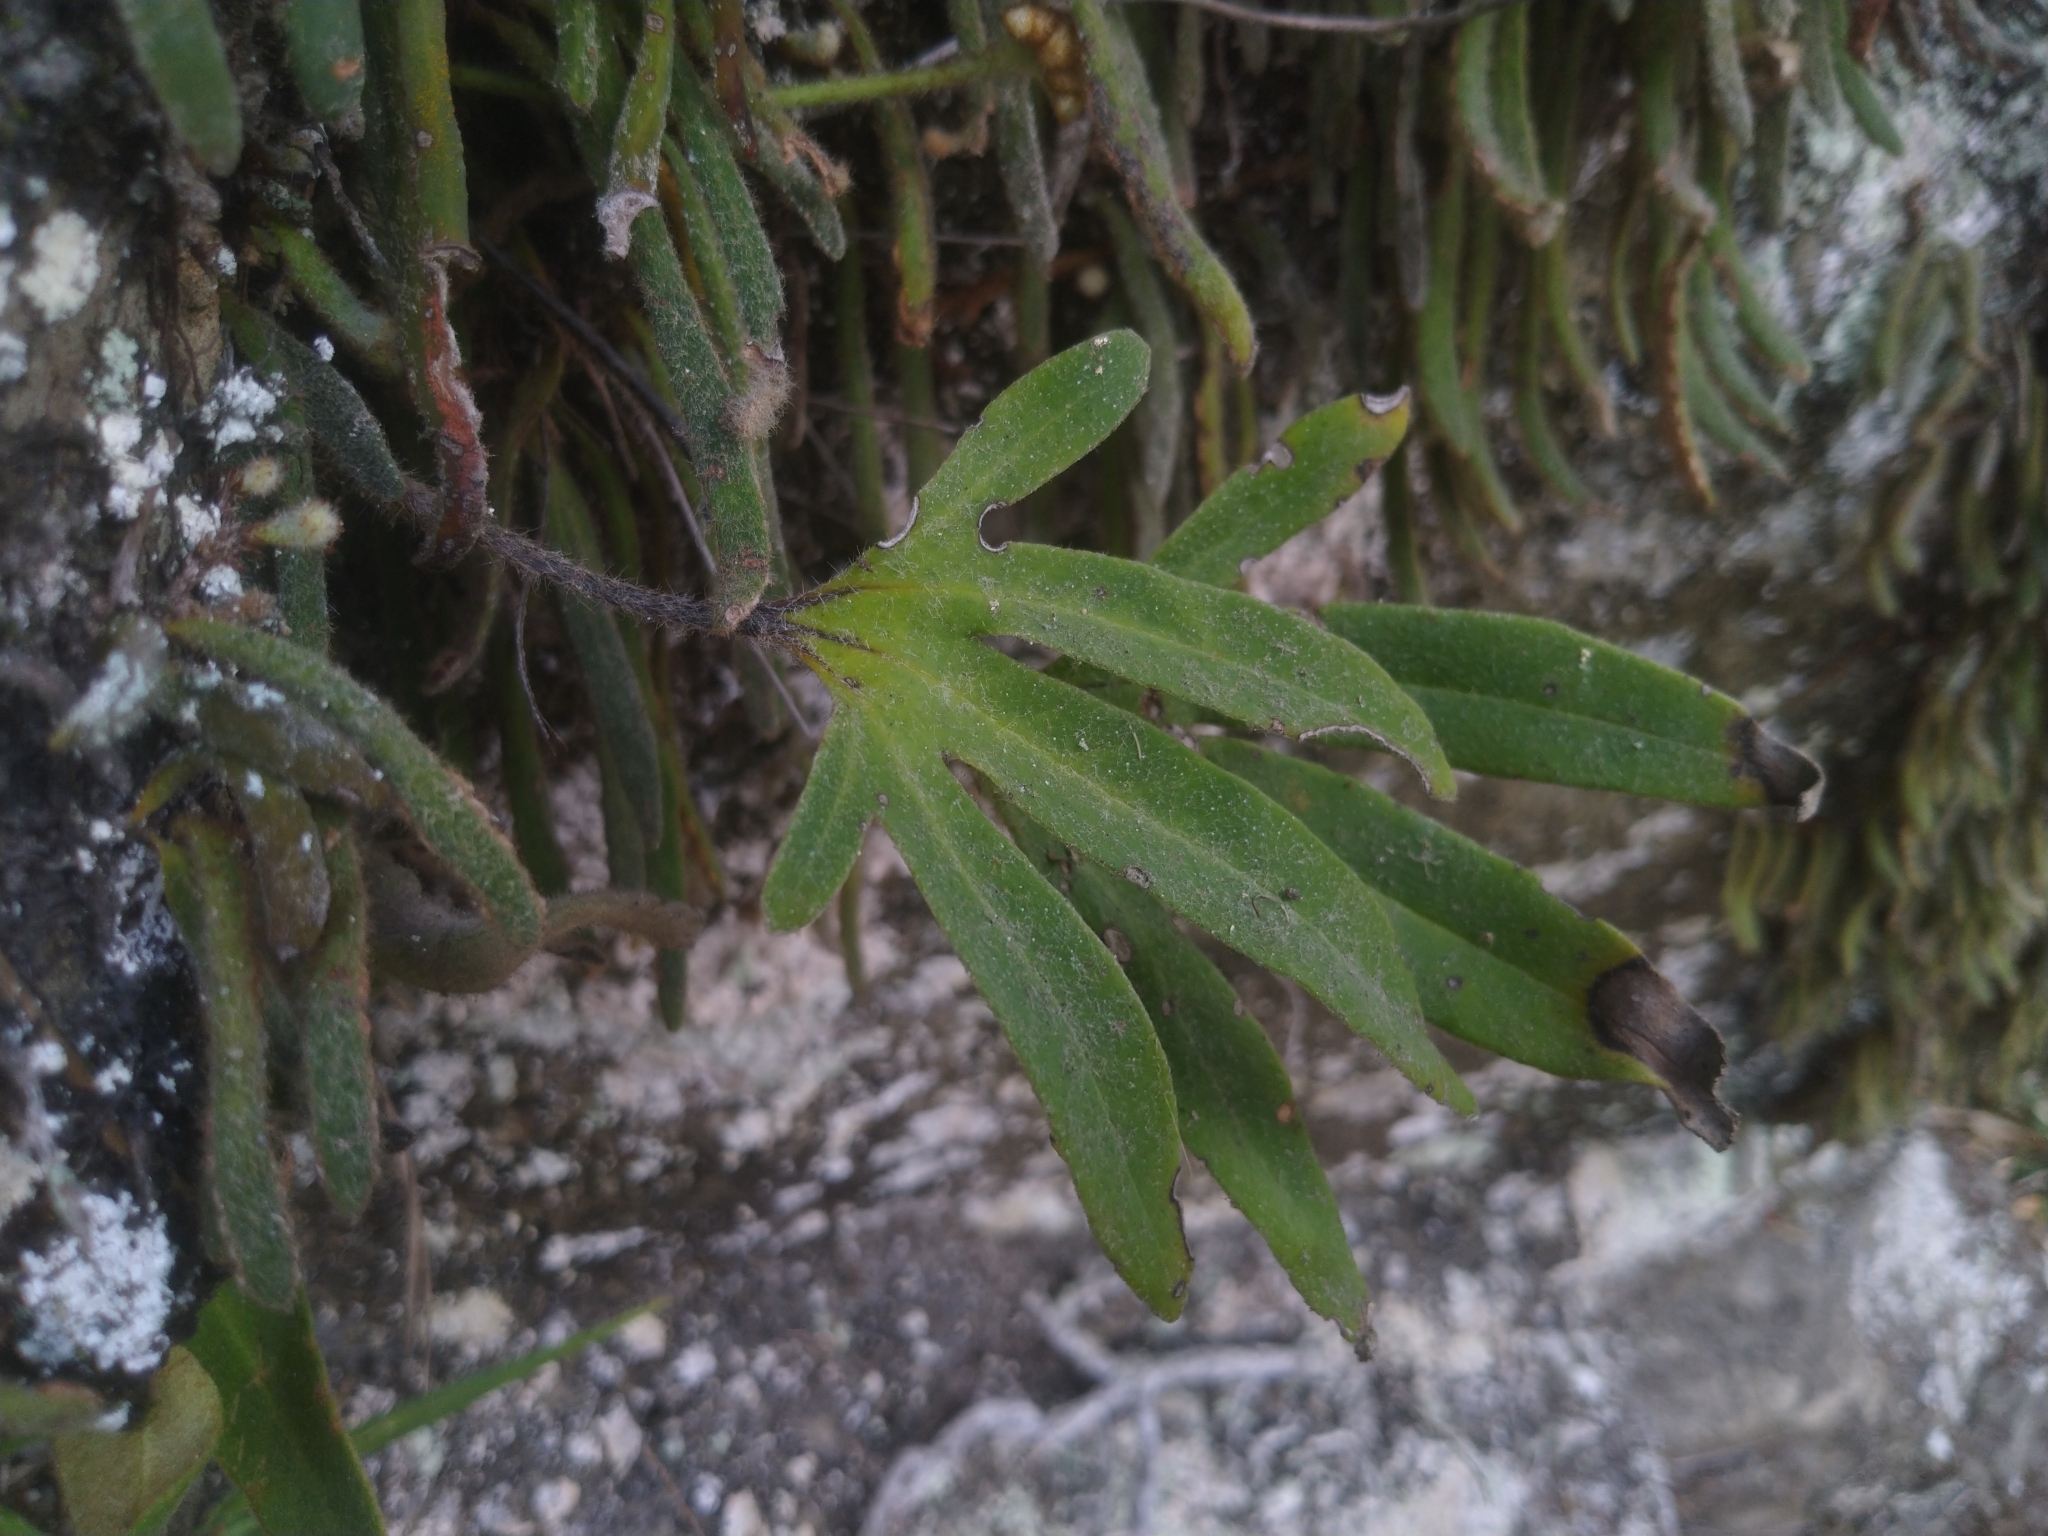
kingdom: Plantae
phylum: Tracheophyta
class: Polypodiopsida
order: Polypodiales
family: Polypodiaceae
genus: Pyrrosia
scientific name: Pyrrosia polydactyla
